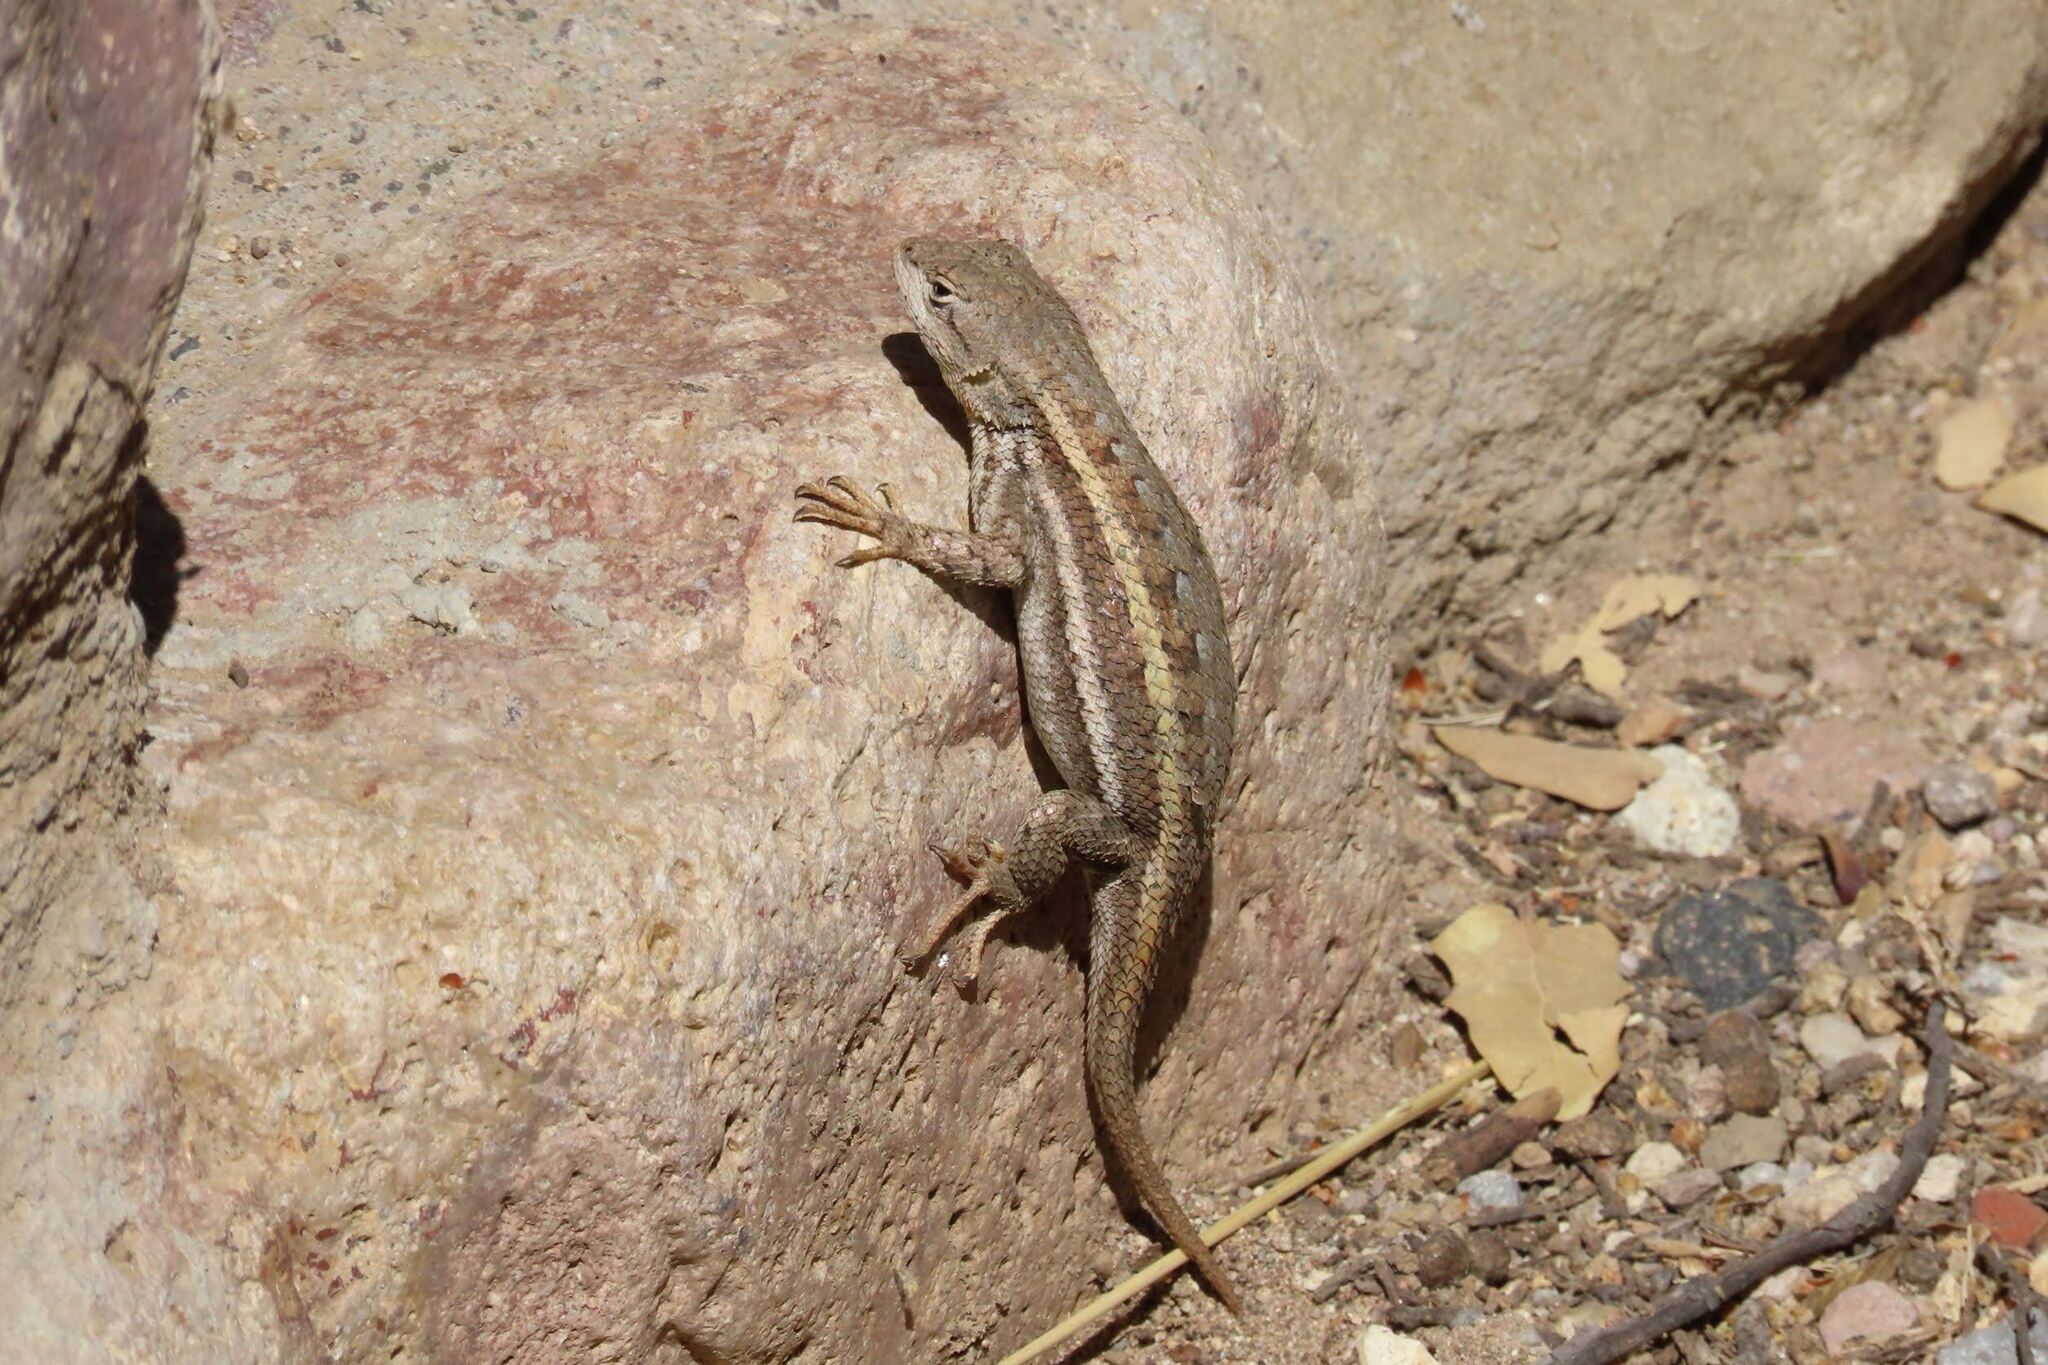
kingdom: Animalia
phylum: Chordata
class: Squamata
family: Phrynosomatidae
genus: Sceloporus
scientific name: Sceloporus virgatus
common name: Striped plateau lizard
